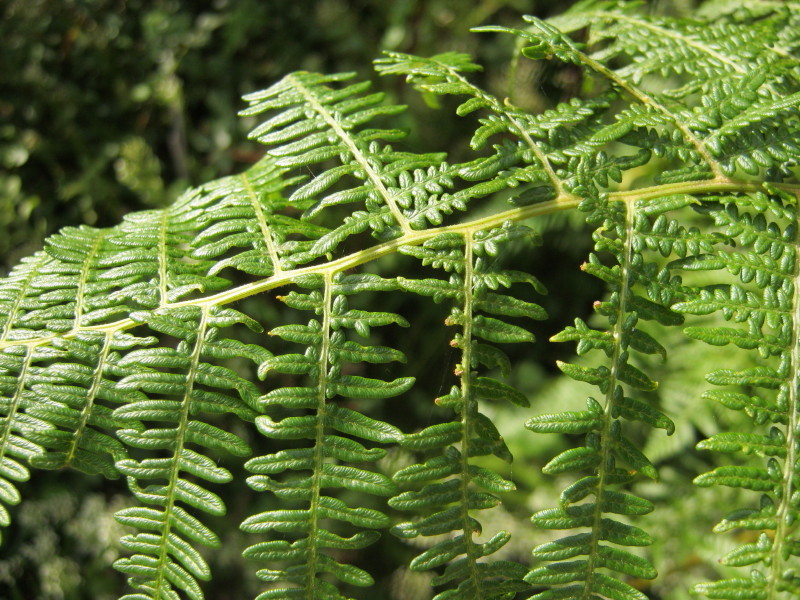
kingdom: Plantae
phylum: Tracheophyta
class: Polypodiopsida
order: Polypodiales
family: Dennstaedtiaceae
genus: Pteridium
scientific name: Pteridium aquilinum
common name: Bracken
